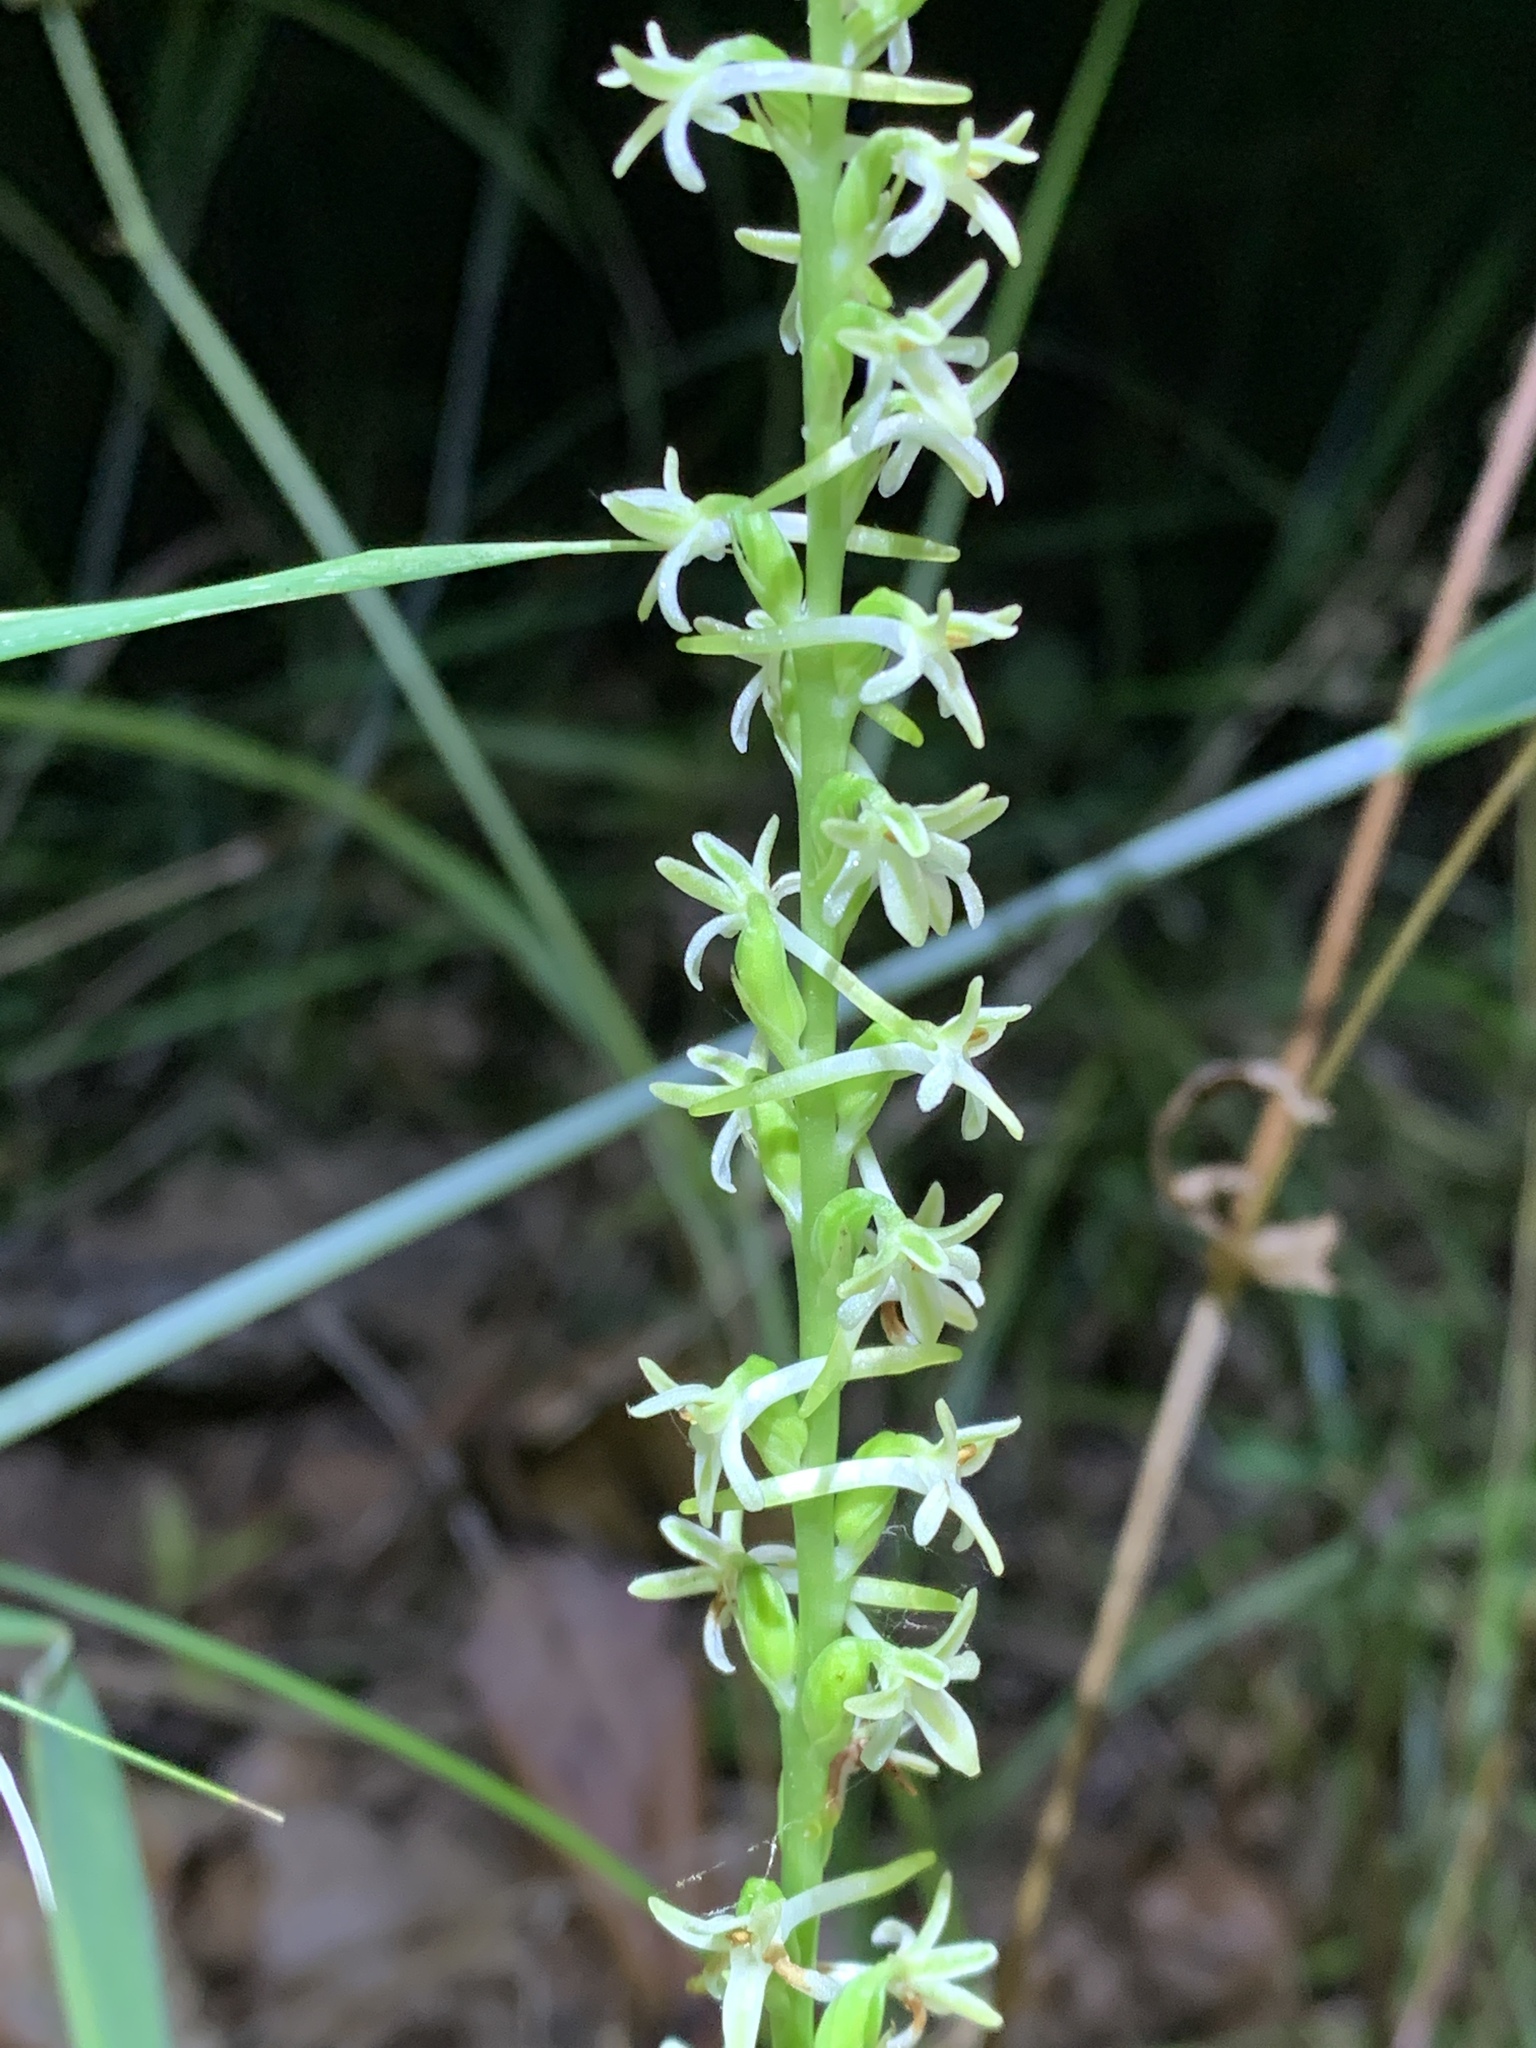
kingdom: Plantae
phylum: Tracheophyta
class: Liliopsida
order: Asparagales
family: Orchidaceae
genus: Platanthera
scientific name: Platanthera transversa
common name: Royal rein orchid
